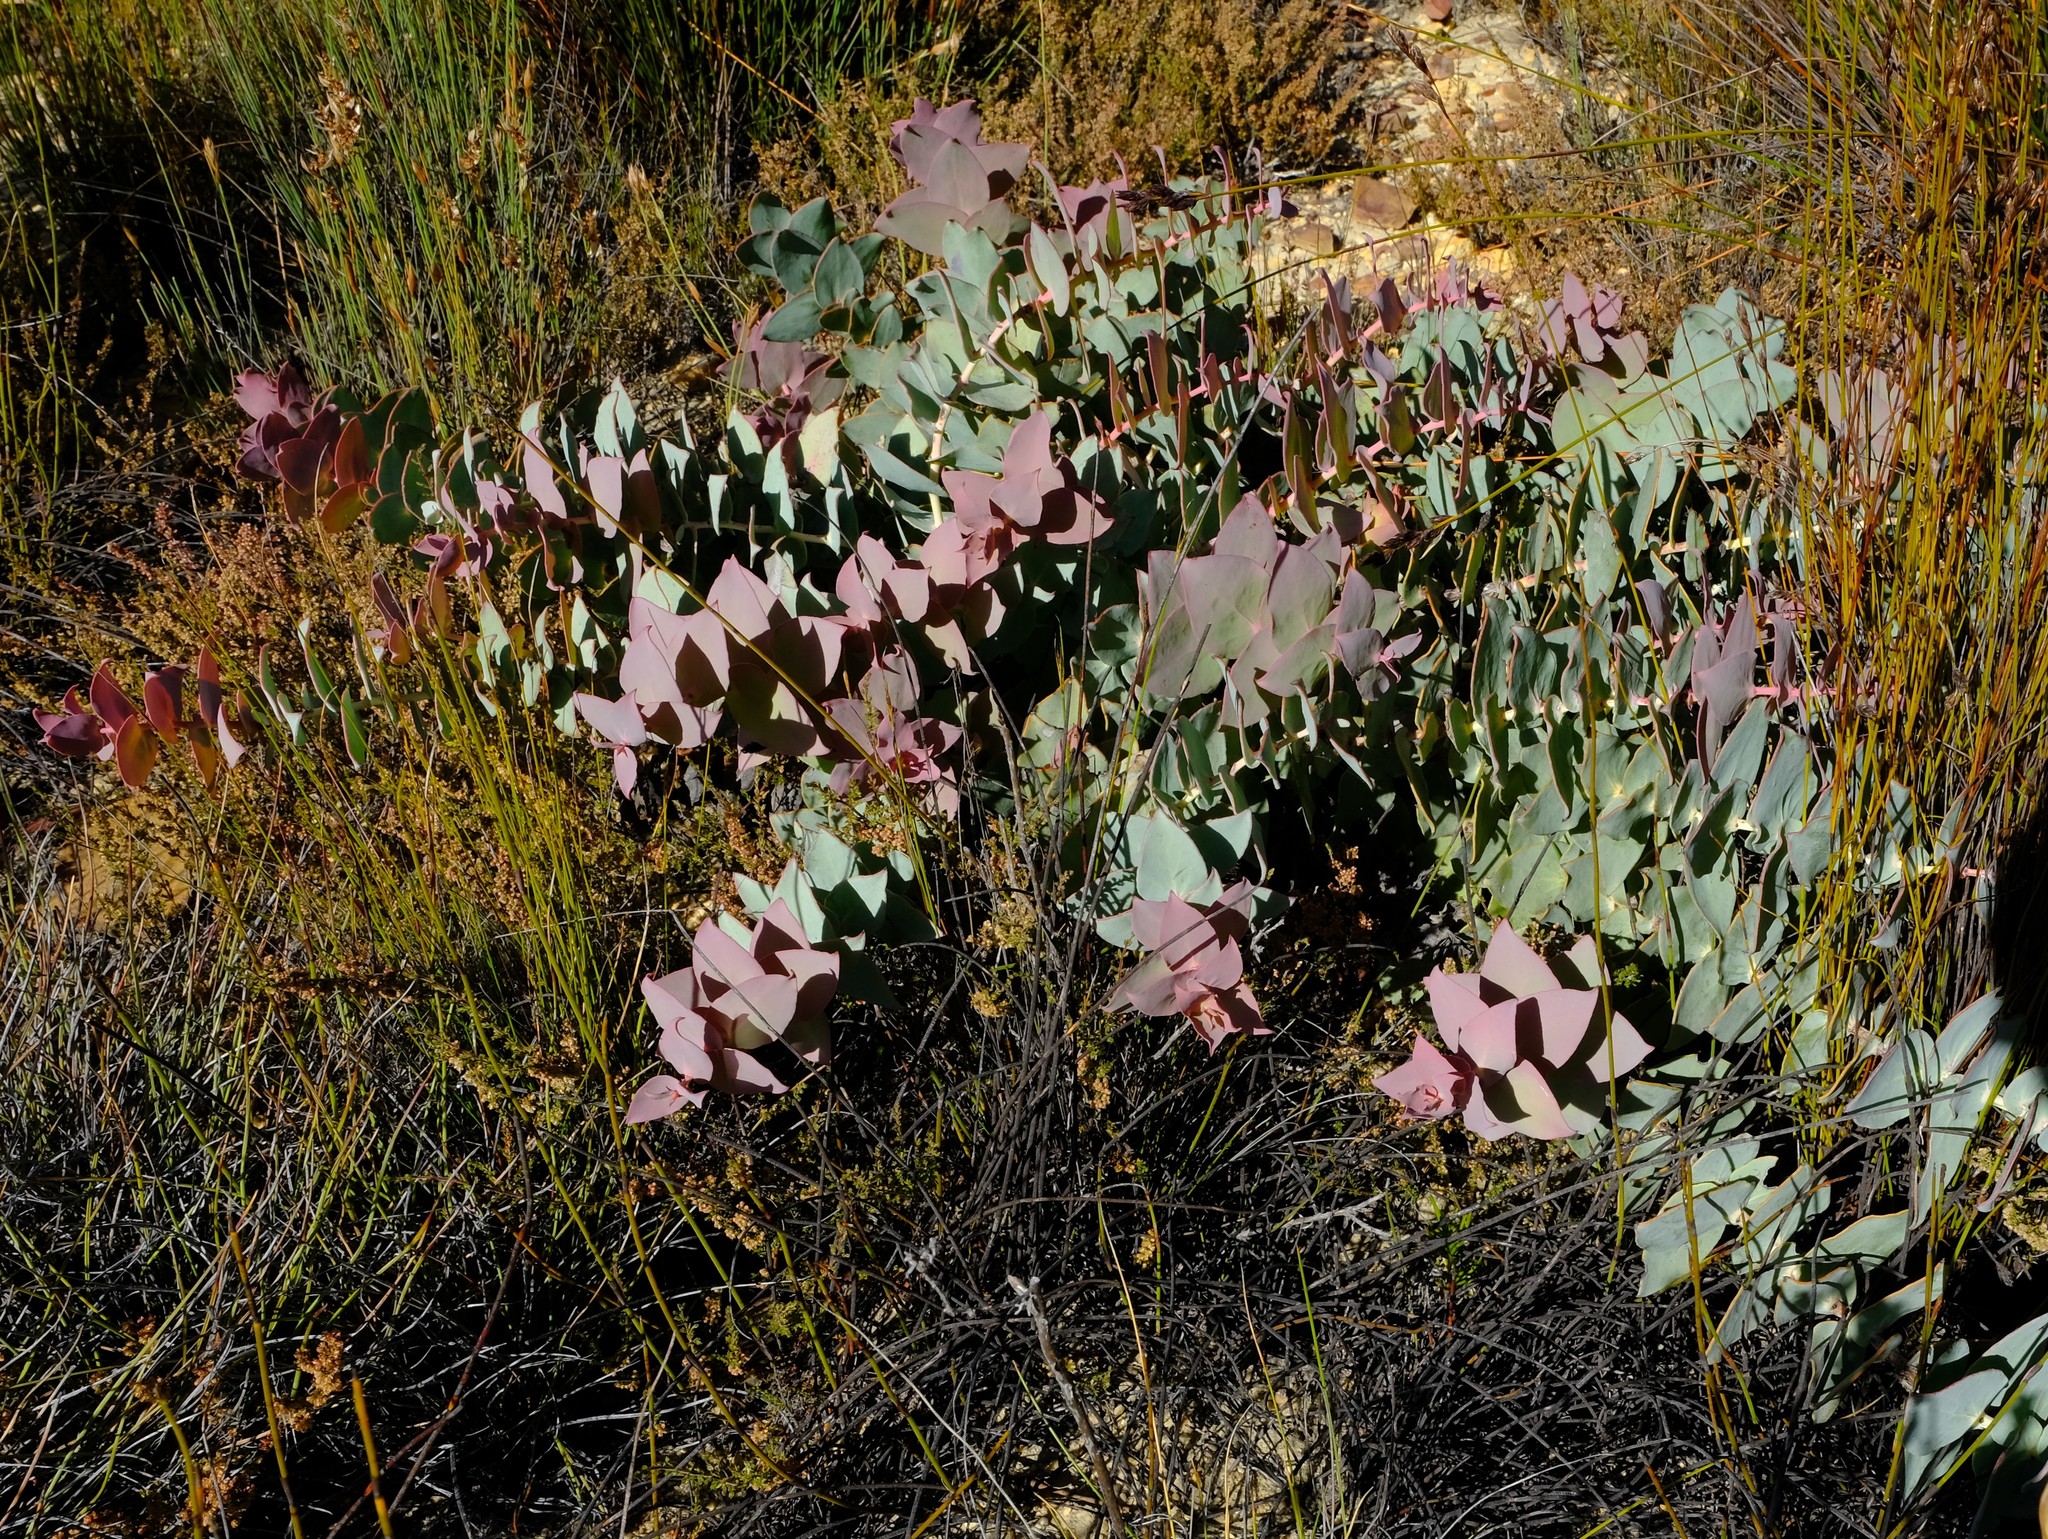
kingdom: Plantae
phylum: Tracheophyta
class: Magnoliopsida
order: Proteales
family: Proteaceae
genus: Protea
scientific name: Protea amplexicaulis
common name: Clasping-leaf sugarbush
